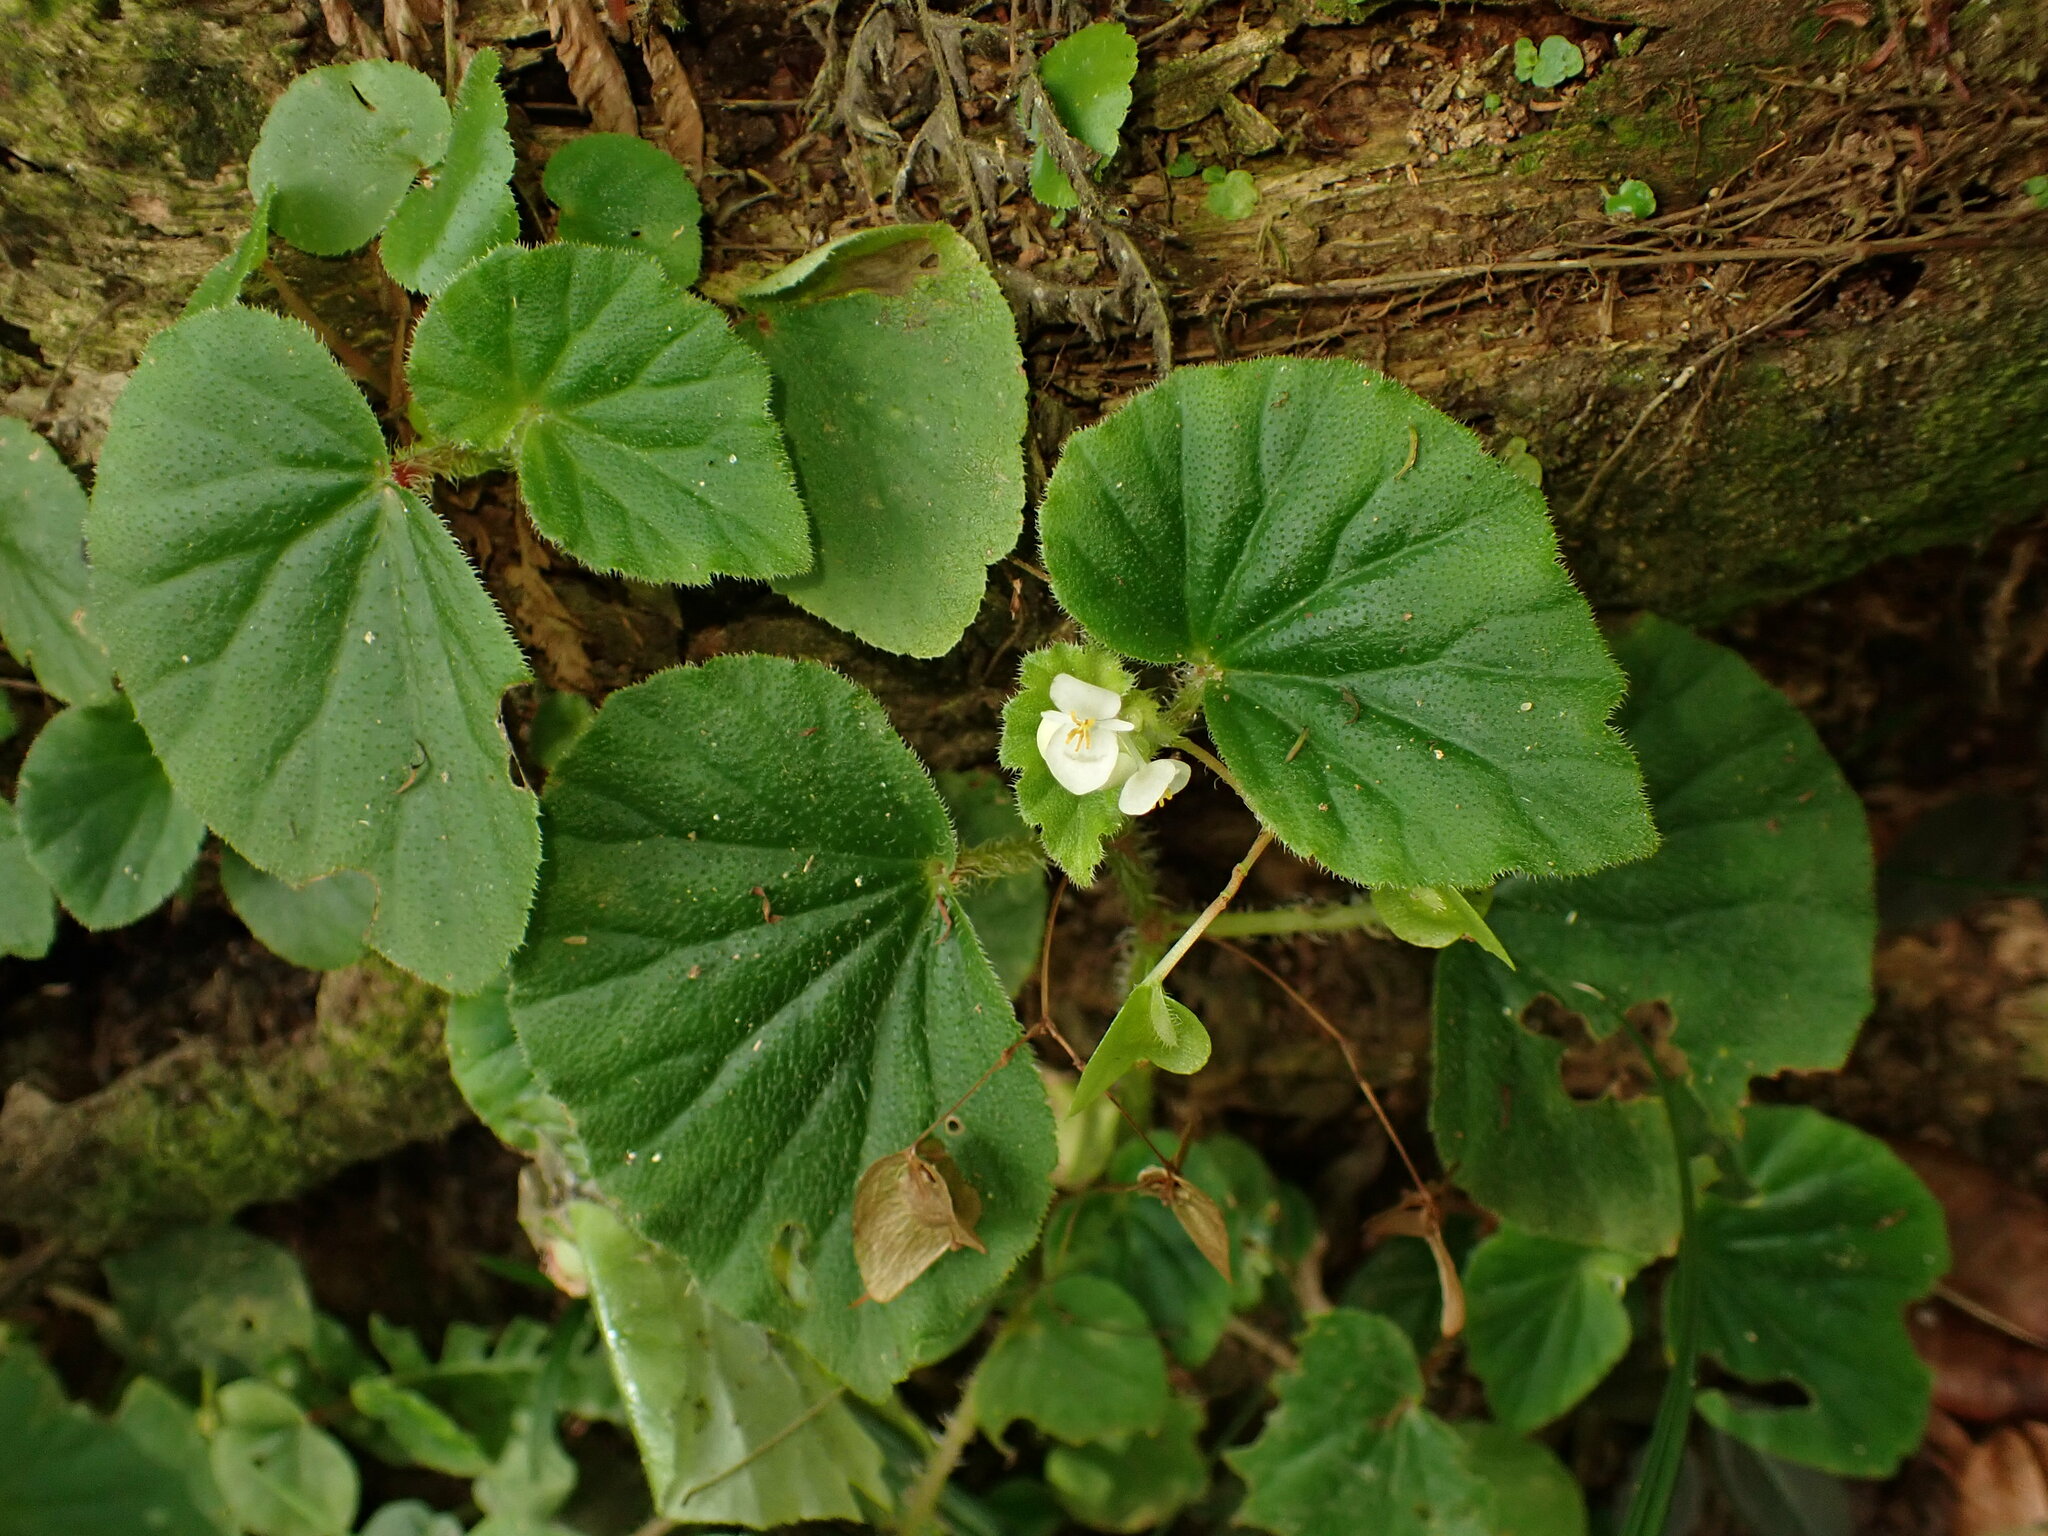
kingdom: Plantae
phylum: Tracheophyta
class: Magnoliopsida
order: Cucurbitales
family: Begoniaceae
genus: Begonia
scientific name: Begonia hirtella
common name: Brazilian begonia
